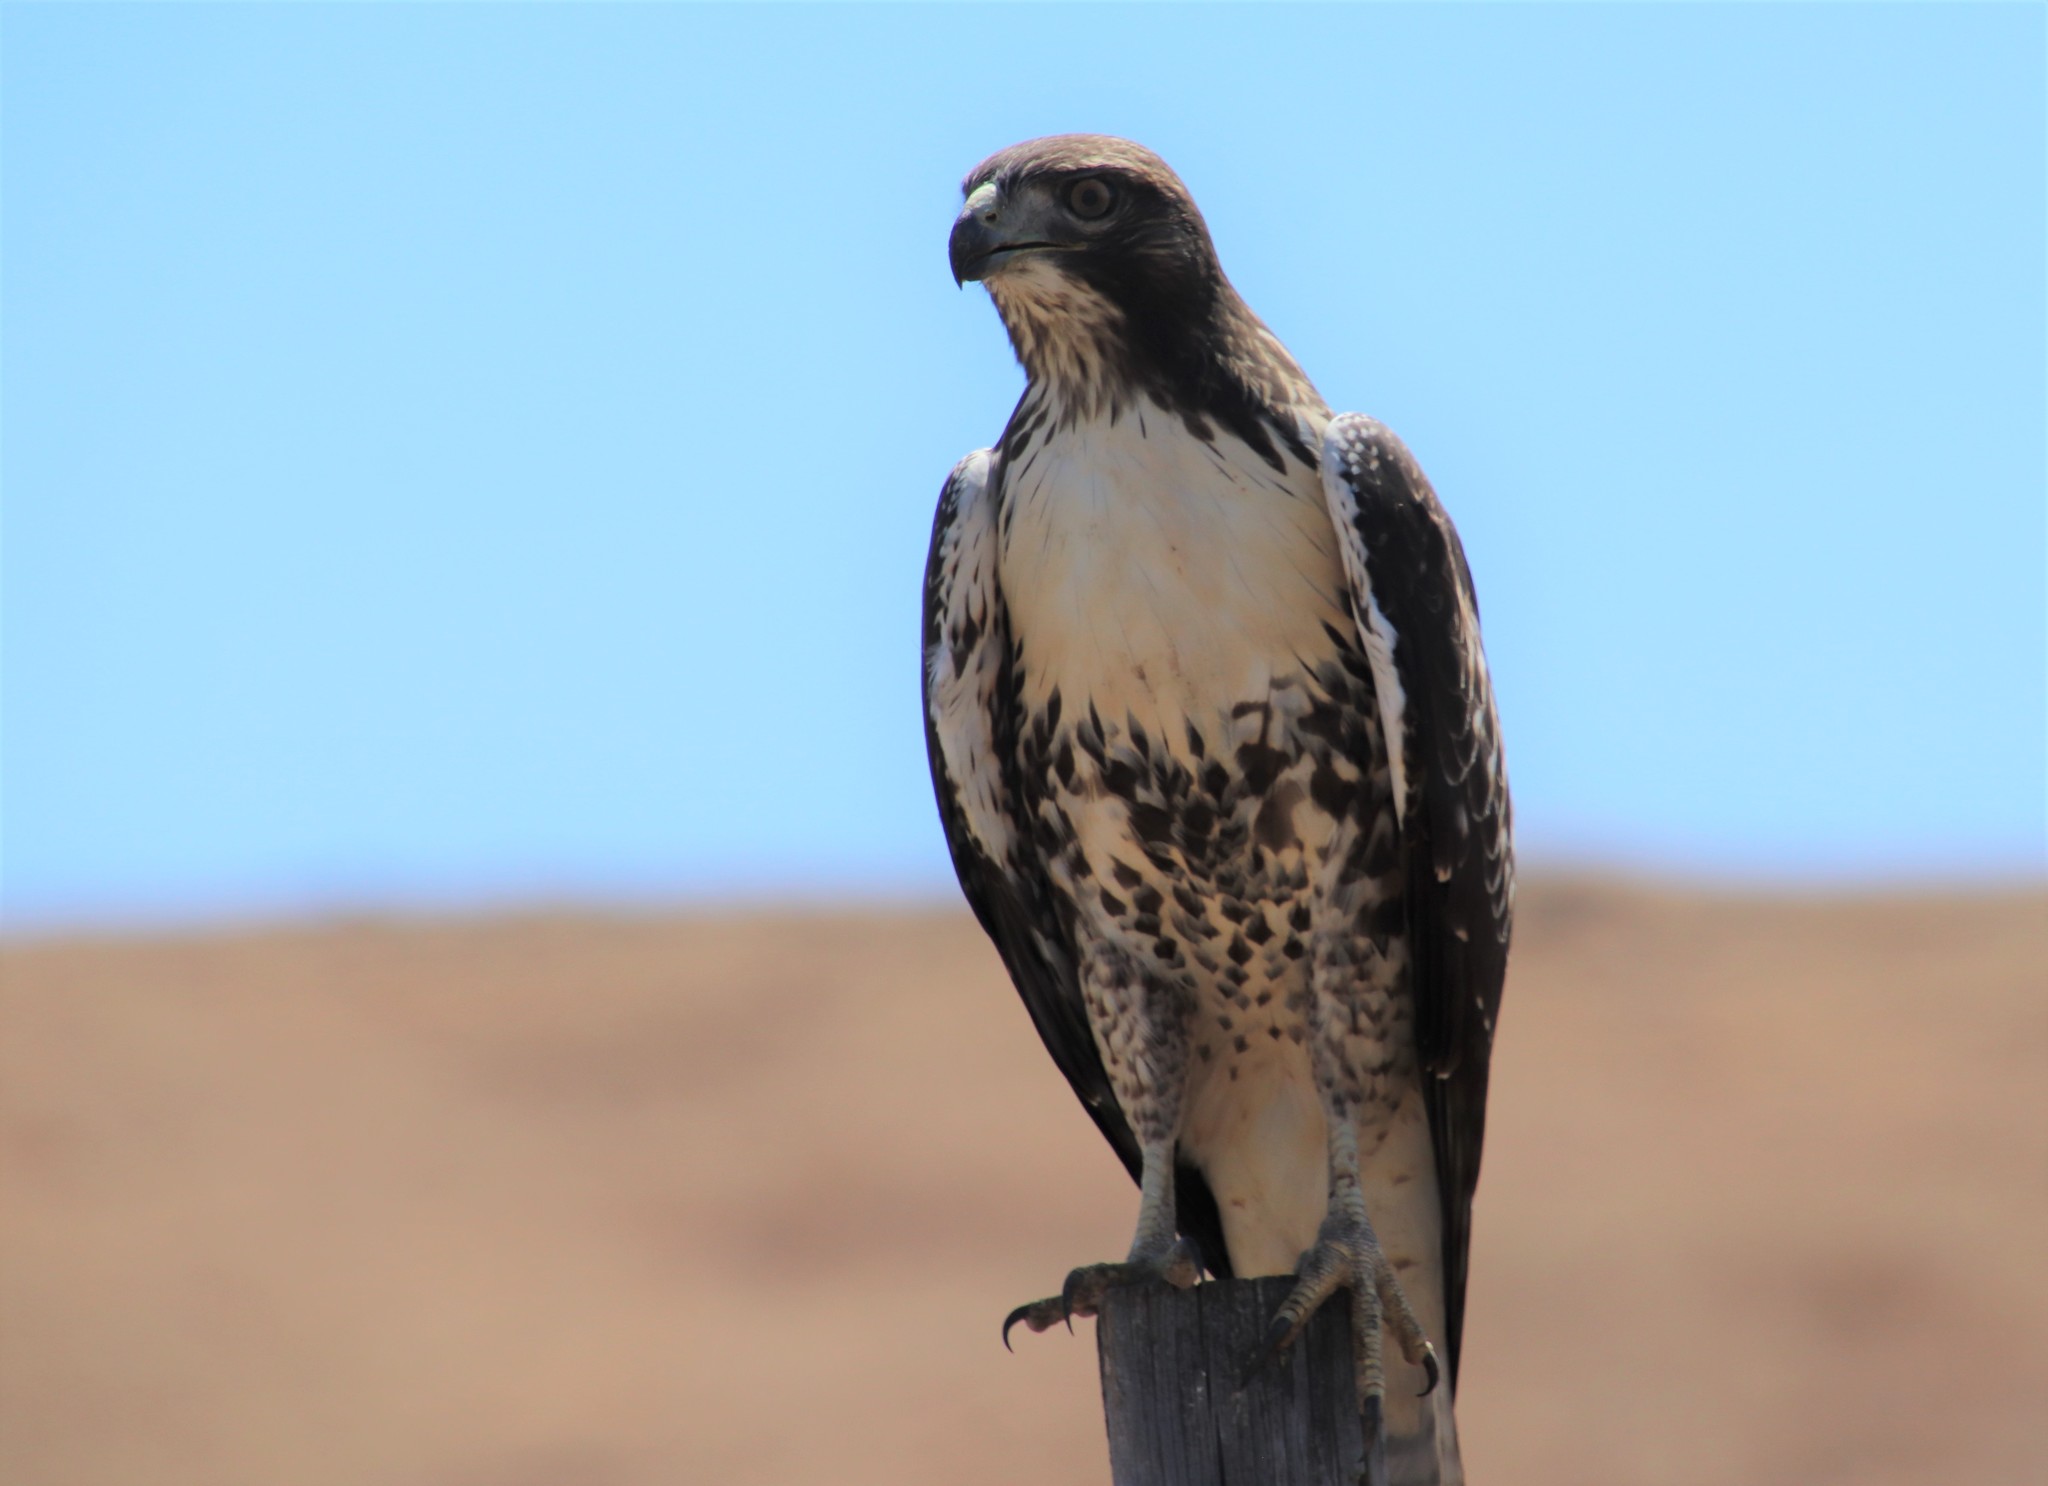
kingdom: Animalia
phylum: Chordata
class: Aves
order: Accipitriformes
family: Accipitridae
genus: Buteo
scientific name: Buteo jamaicensis
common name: Red-tailed hawk
